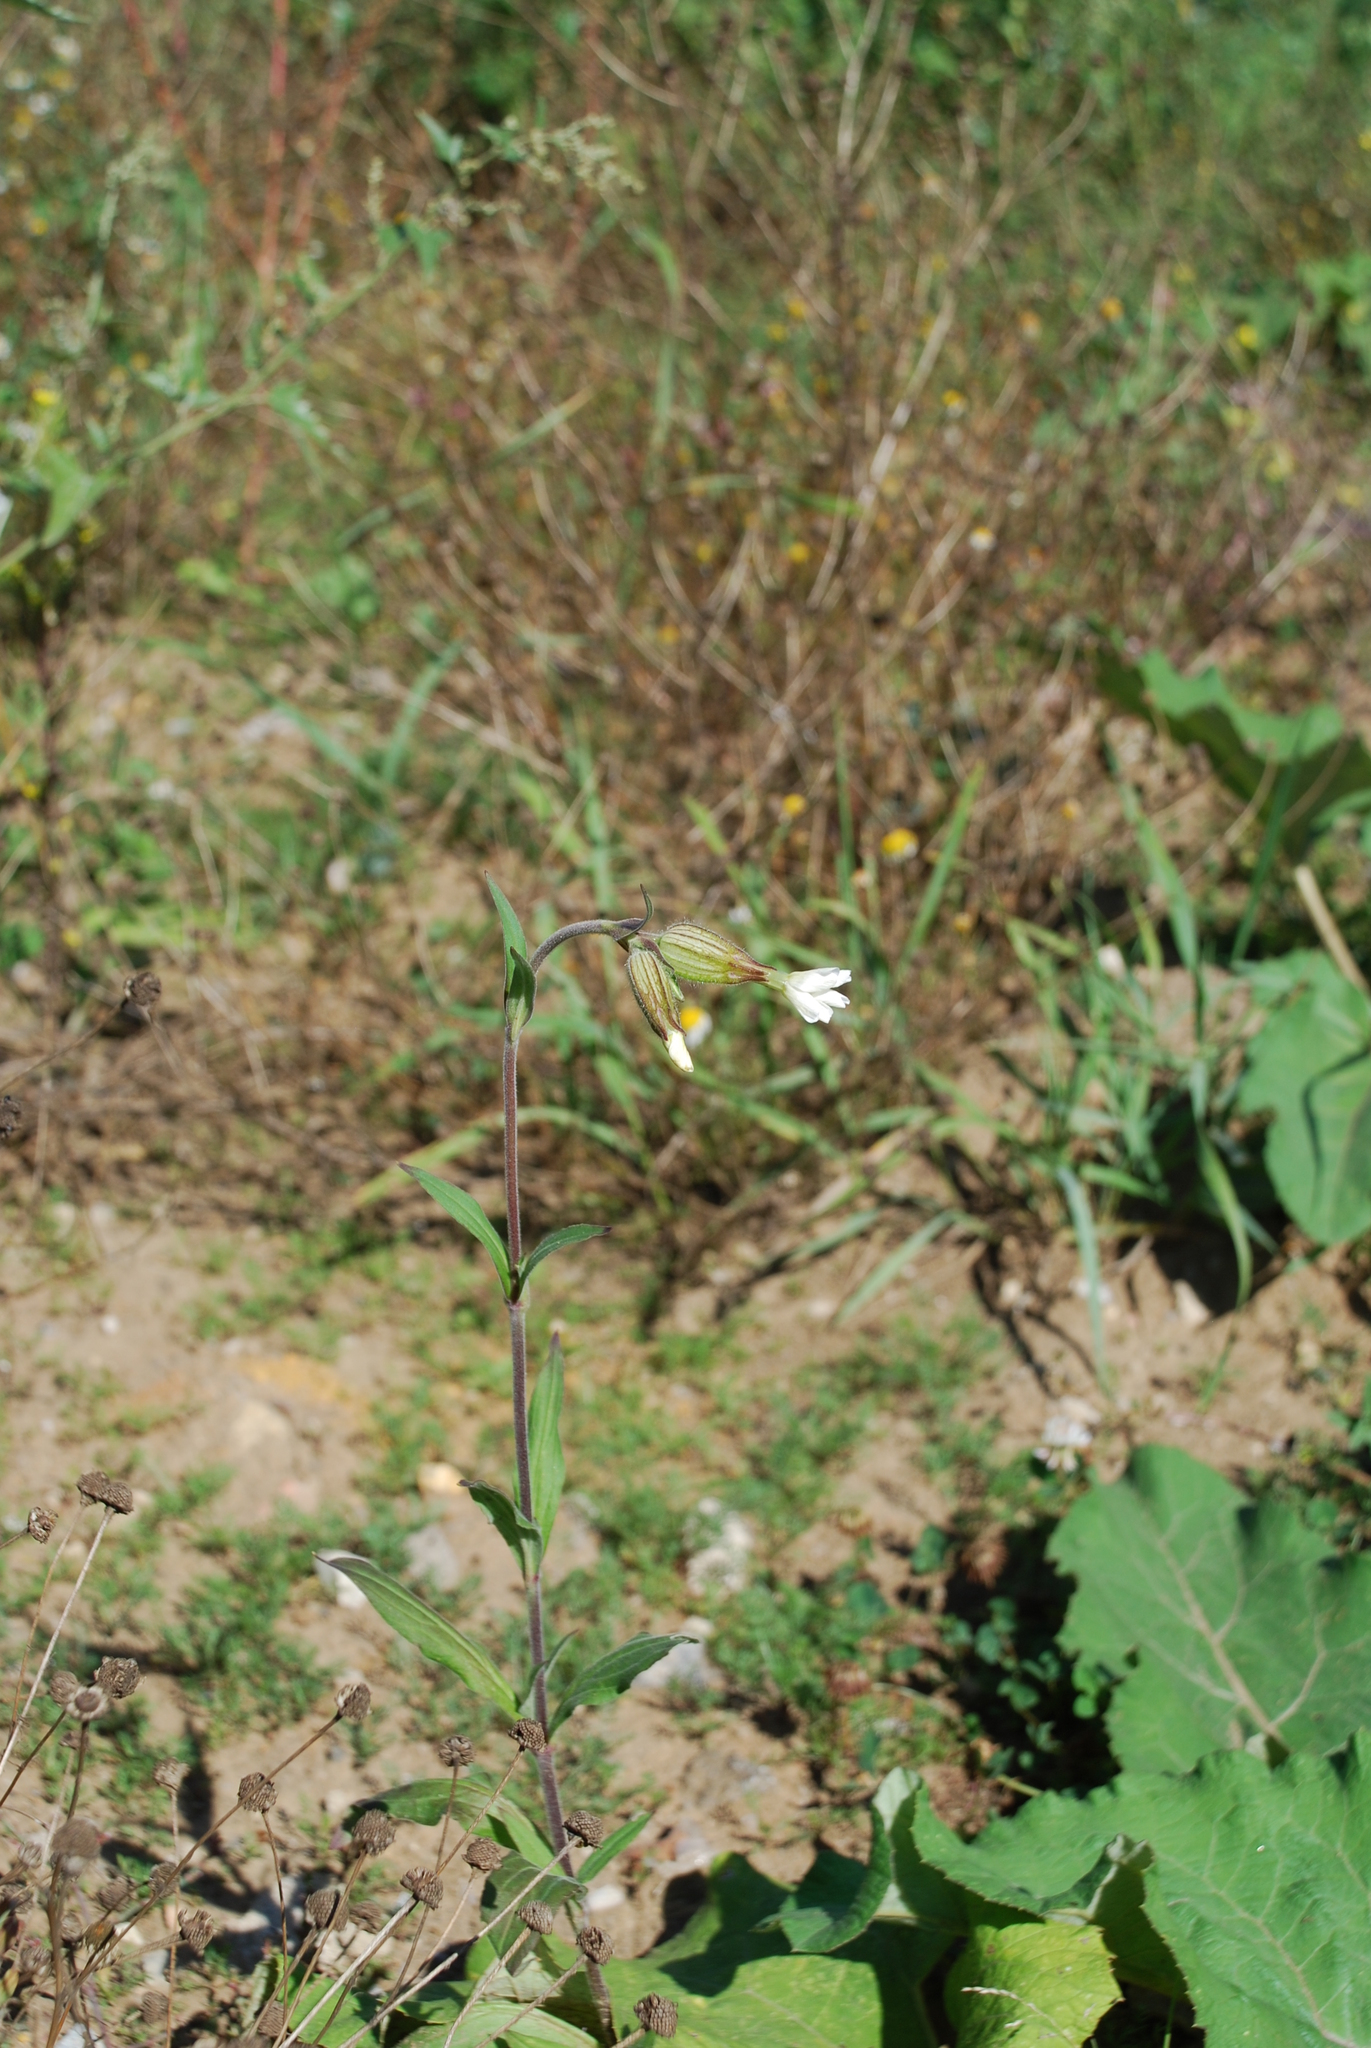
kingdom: Plantae
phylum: Tracheophyta
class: Magnoliopsida
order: Caryophyllales
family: Caryophyllaceae
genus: Silene
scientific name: Silene latifolia
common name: White campion
